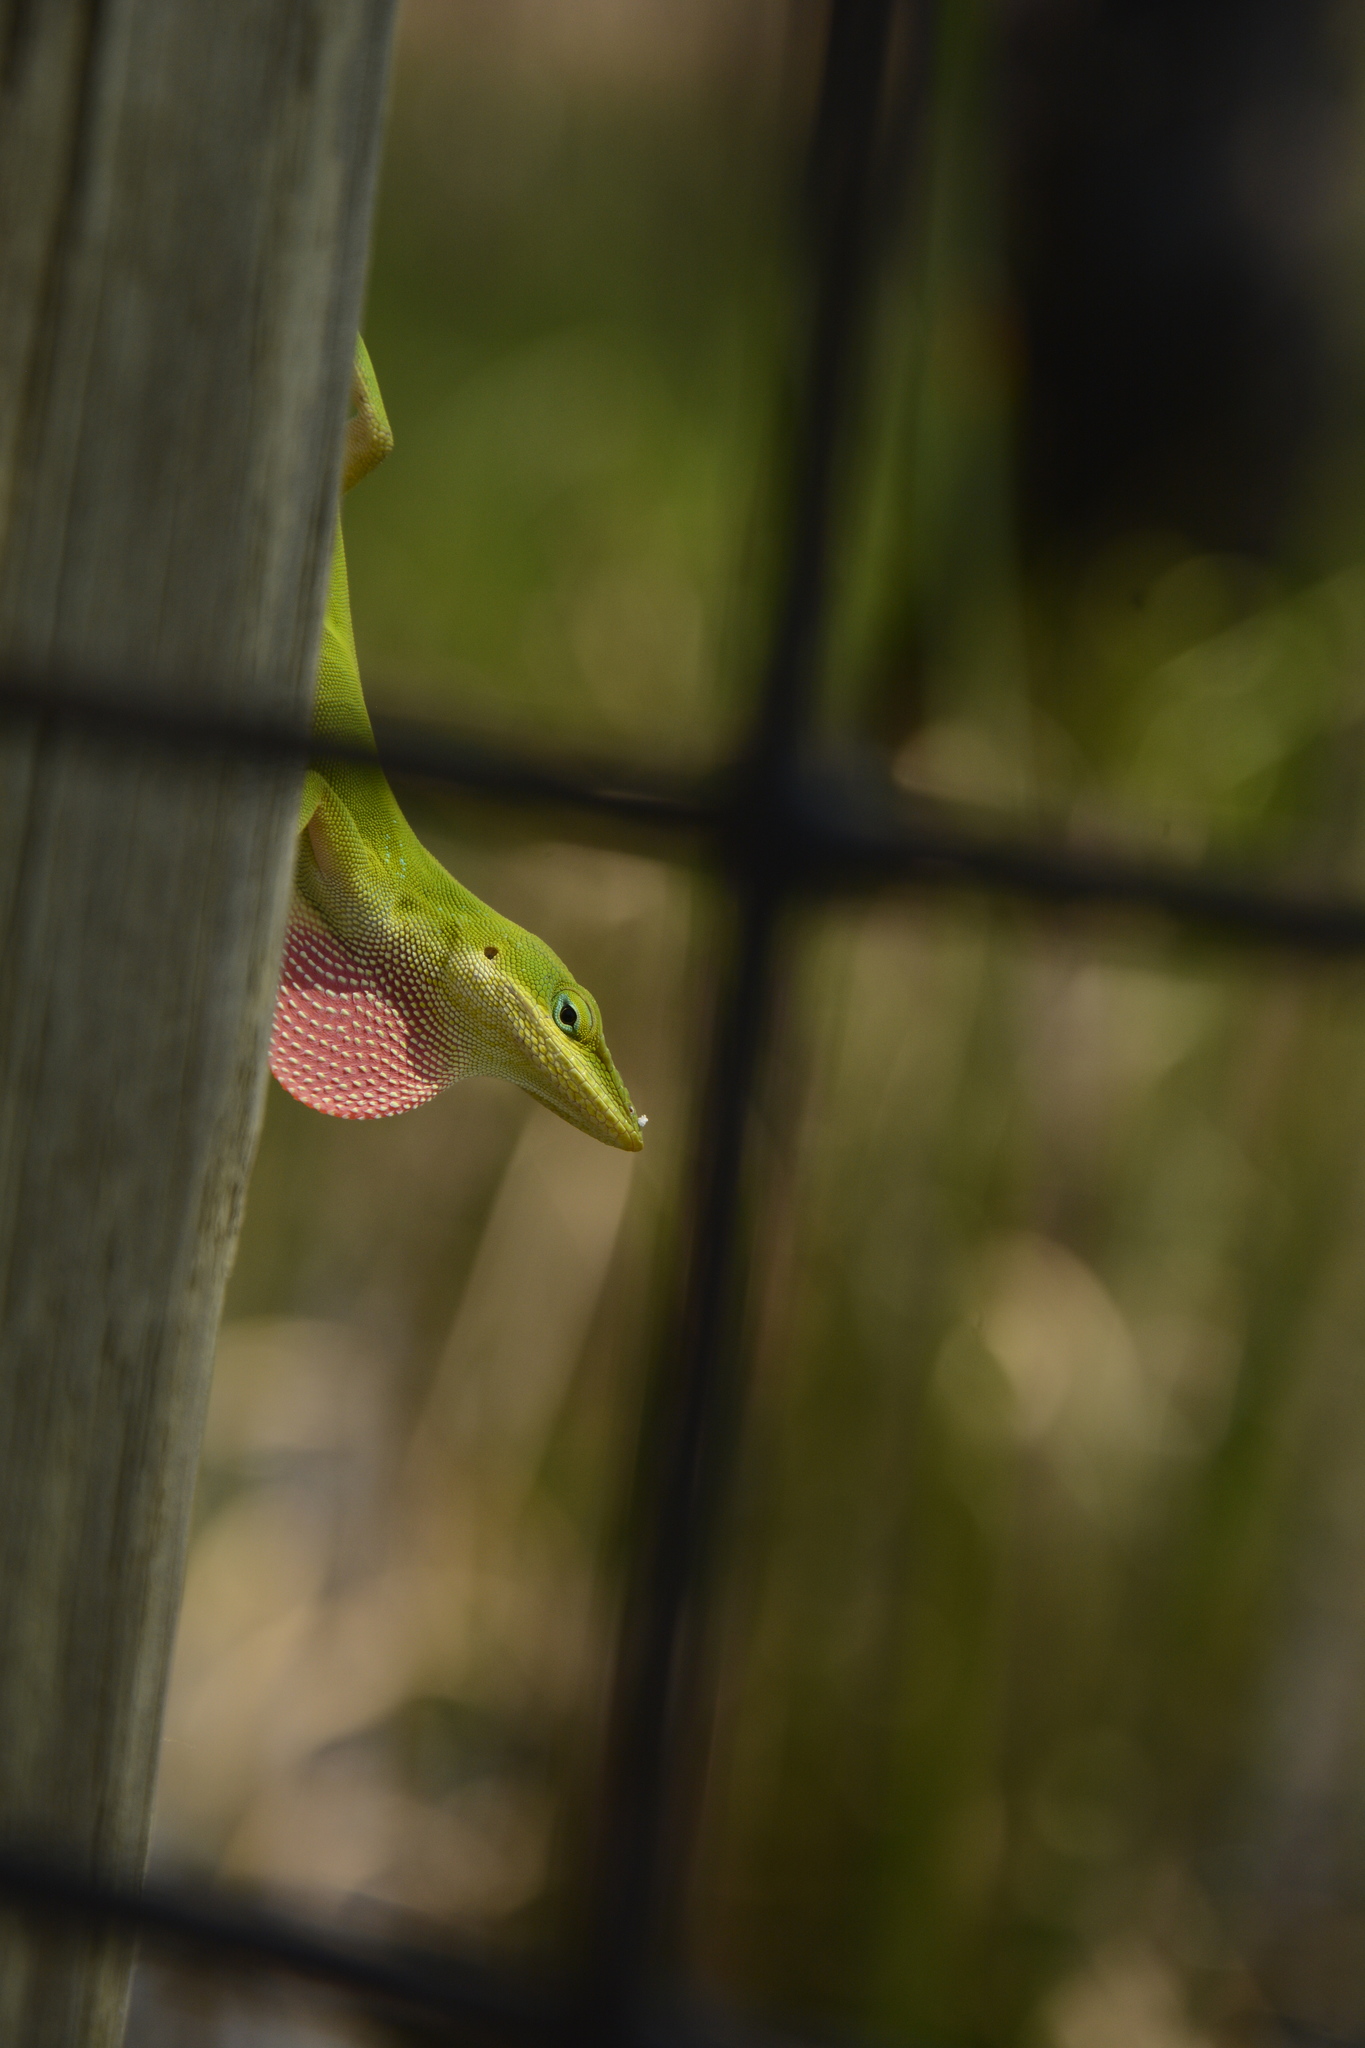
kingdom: Animalia
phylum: Chordata
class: Squamata
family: Dactyloidae
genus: Anolis
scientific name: Anolis carolinensis
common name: Green anole
